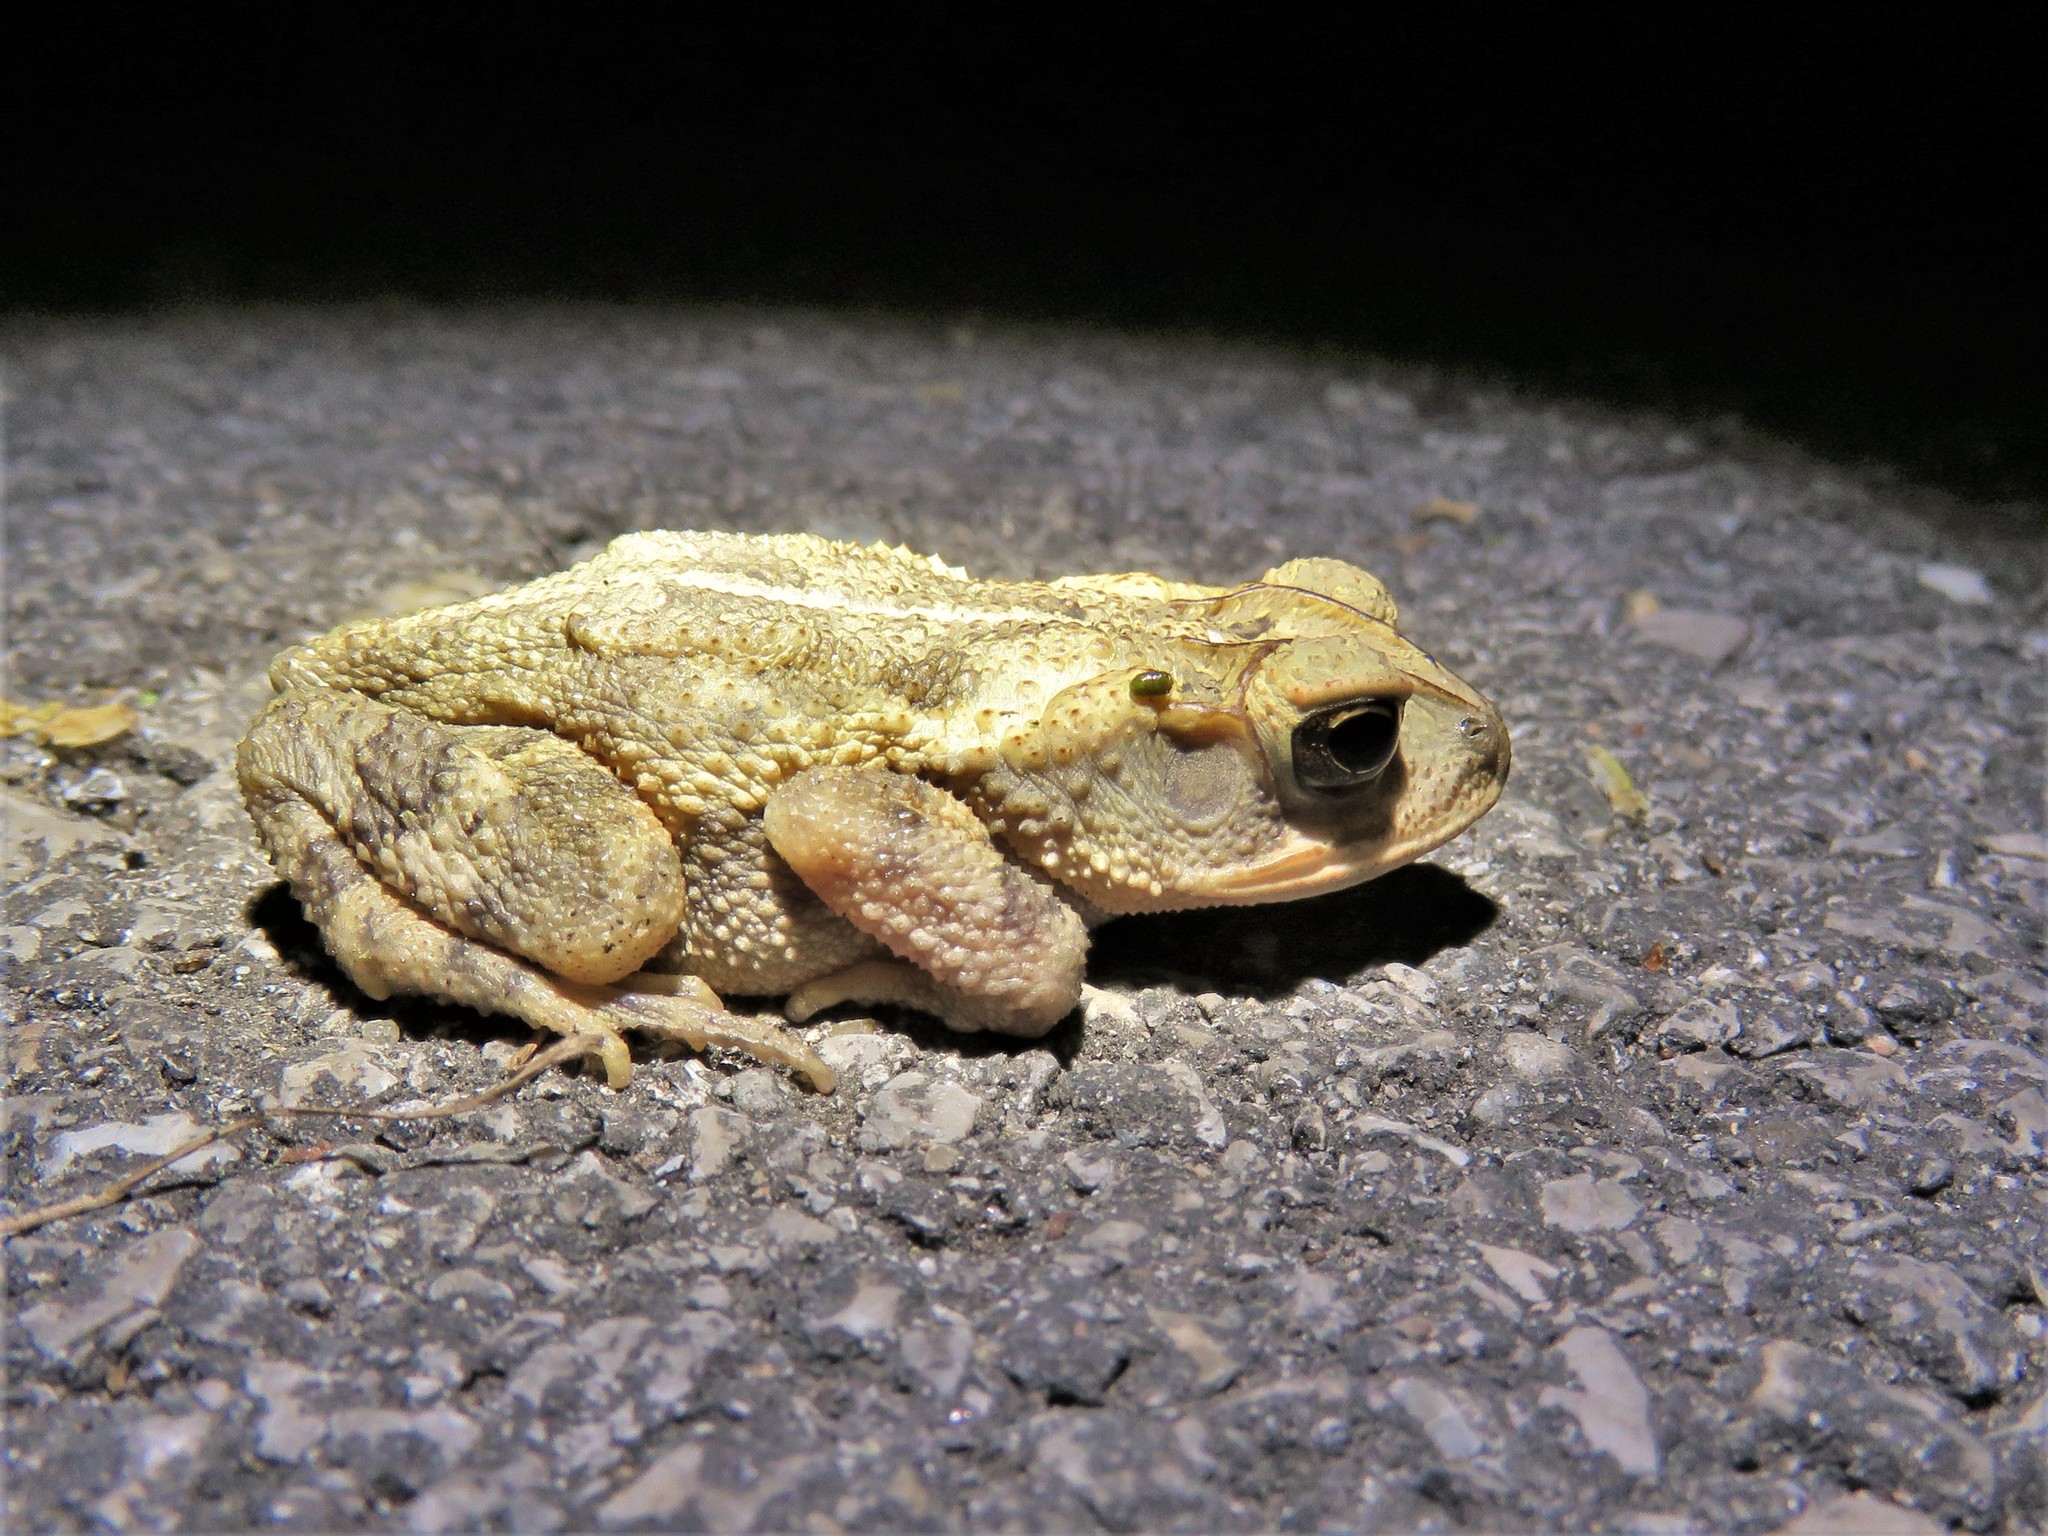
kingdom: Animalia
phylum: Chordata
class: Amphibia
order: Anura
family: Bufonidae
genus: Incilius
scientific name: Incilius nebulifer
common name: Gulf coast toad
